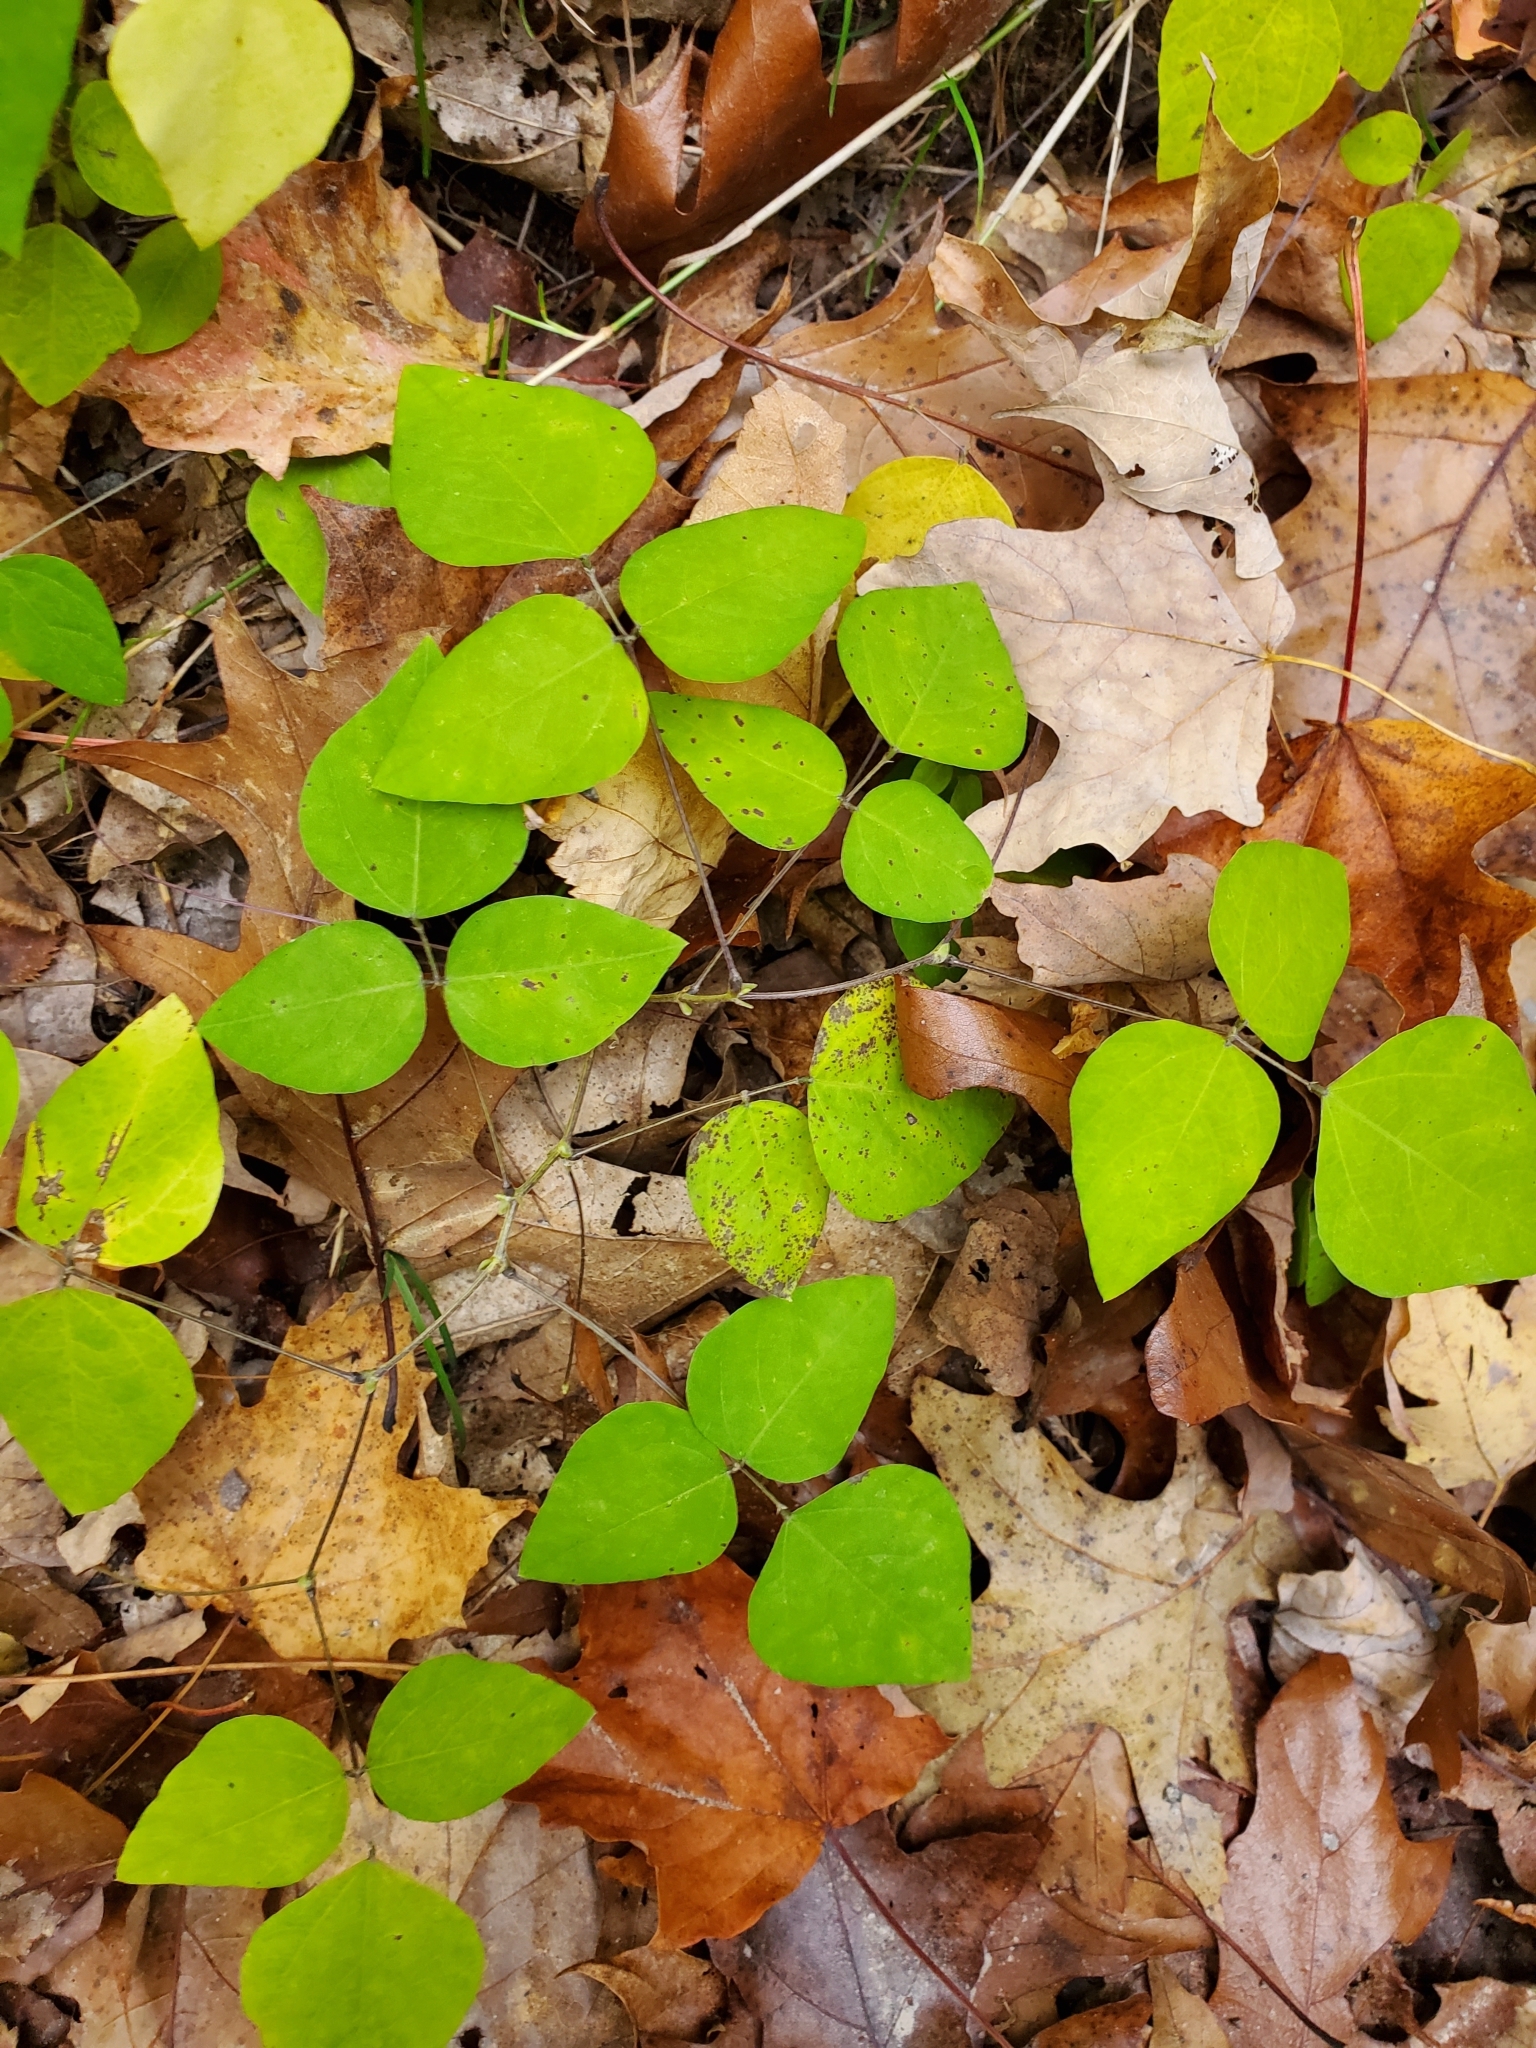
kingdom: Plantae
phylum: Tracheophyta
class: Magnoliopsida
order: Fabales
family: Fabaceae
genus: Amphicarpaea
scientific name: Amphicarpaea bracteata
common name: American hog peanut
